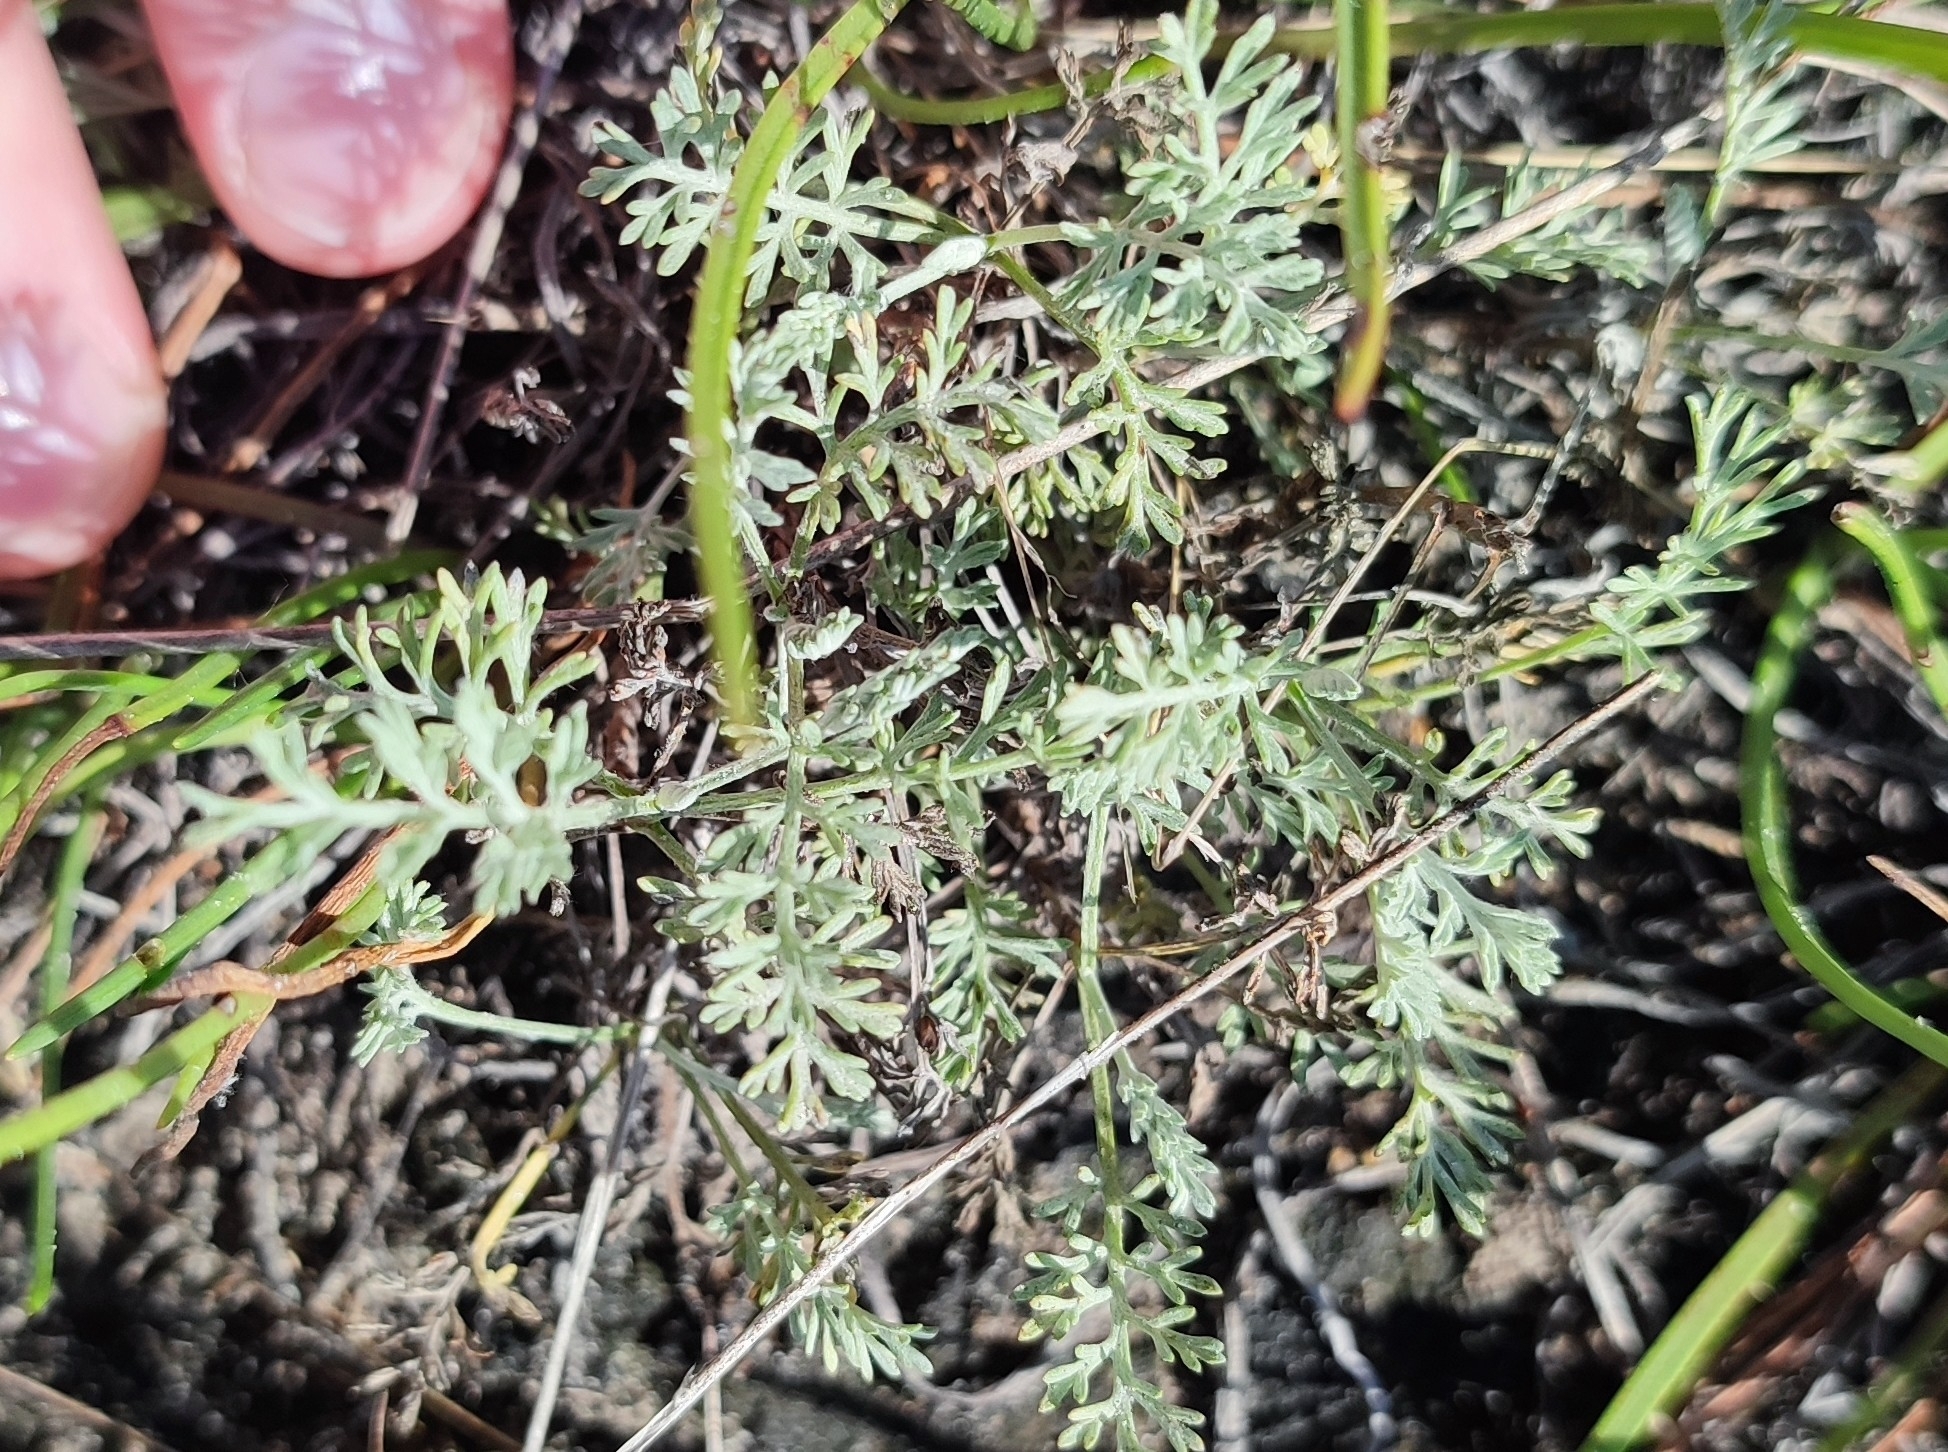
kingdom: Plantae
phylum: Tracheophyta
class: Magnoliopsida
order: Asterales
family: Asteraceae
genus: Artemisia
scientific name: Artemisia nitrosa
